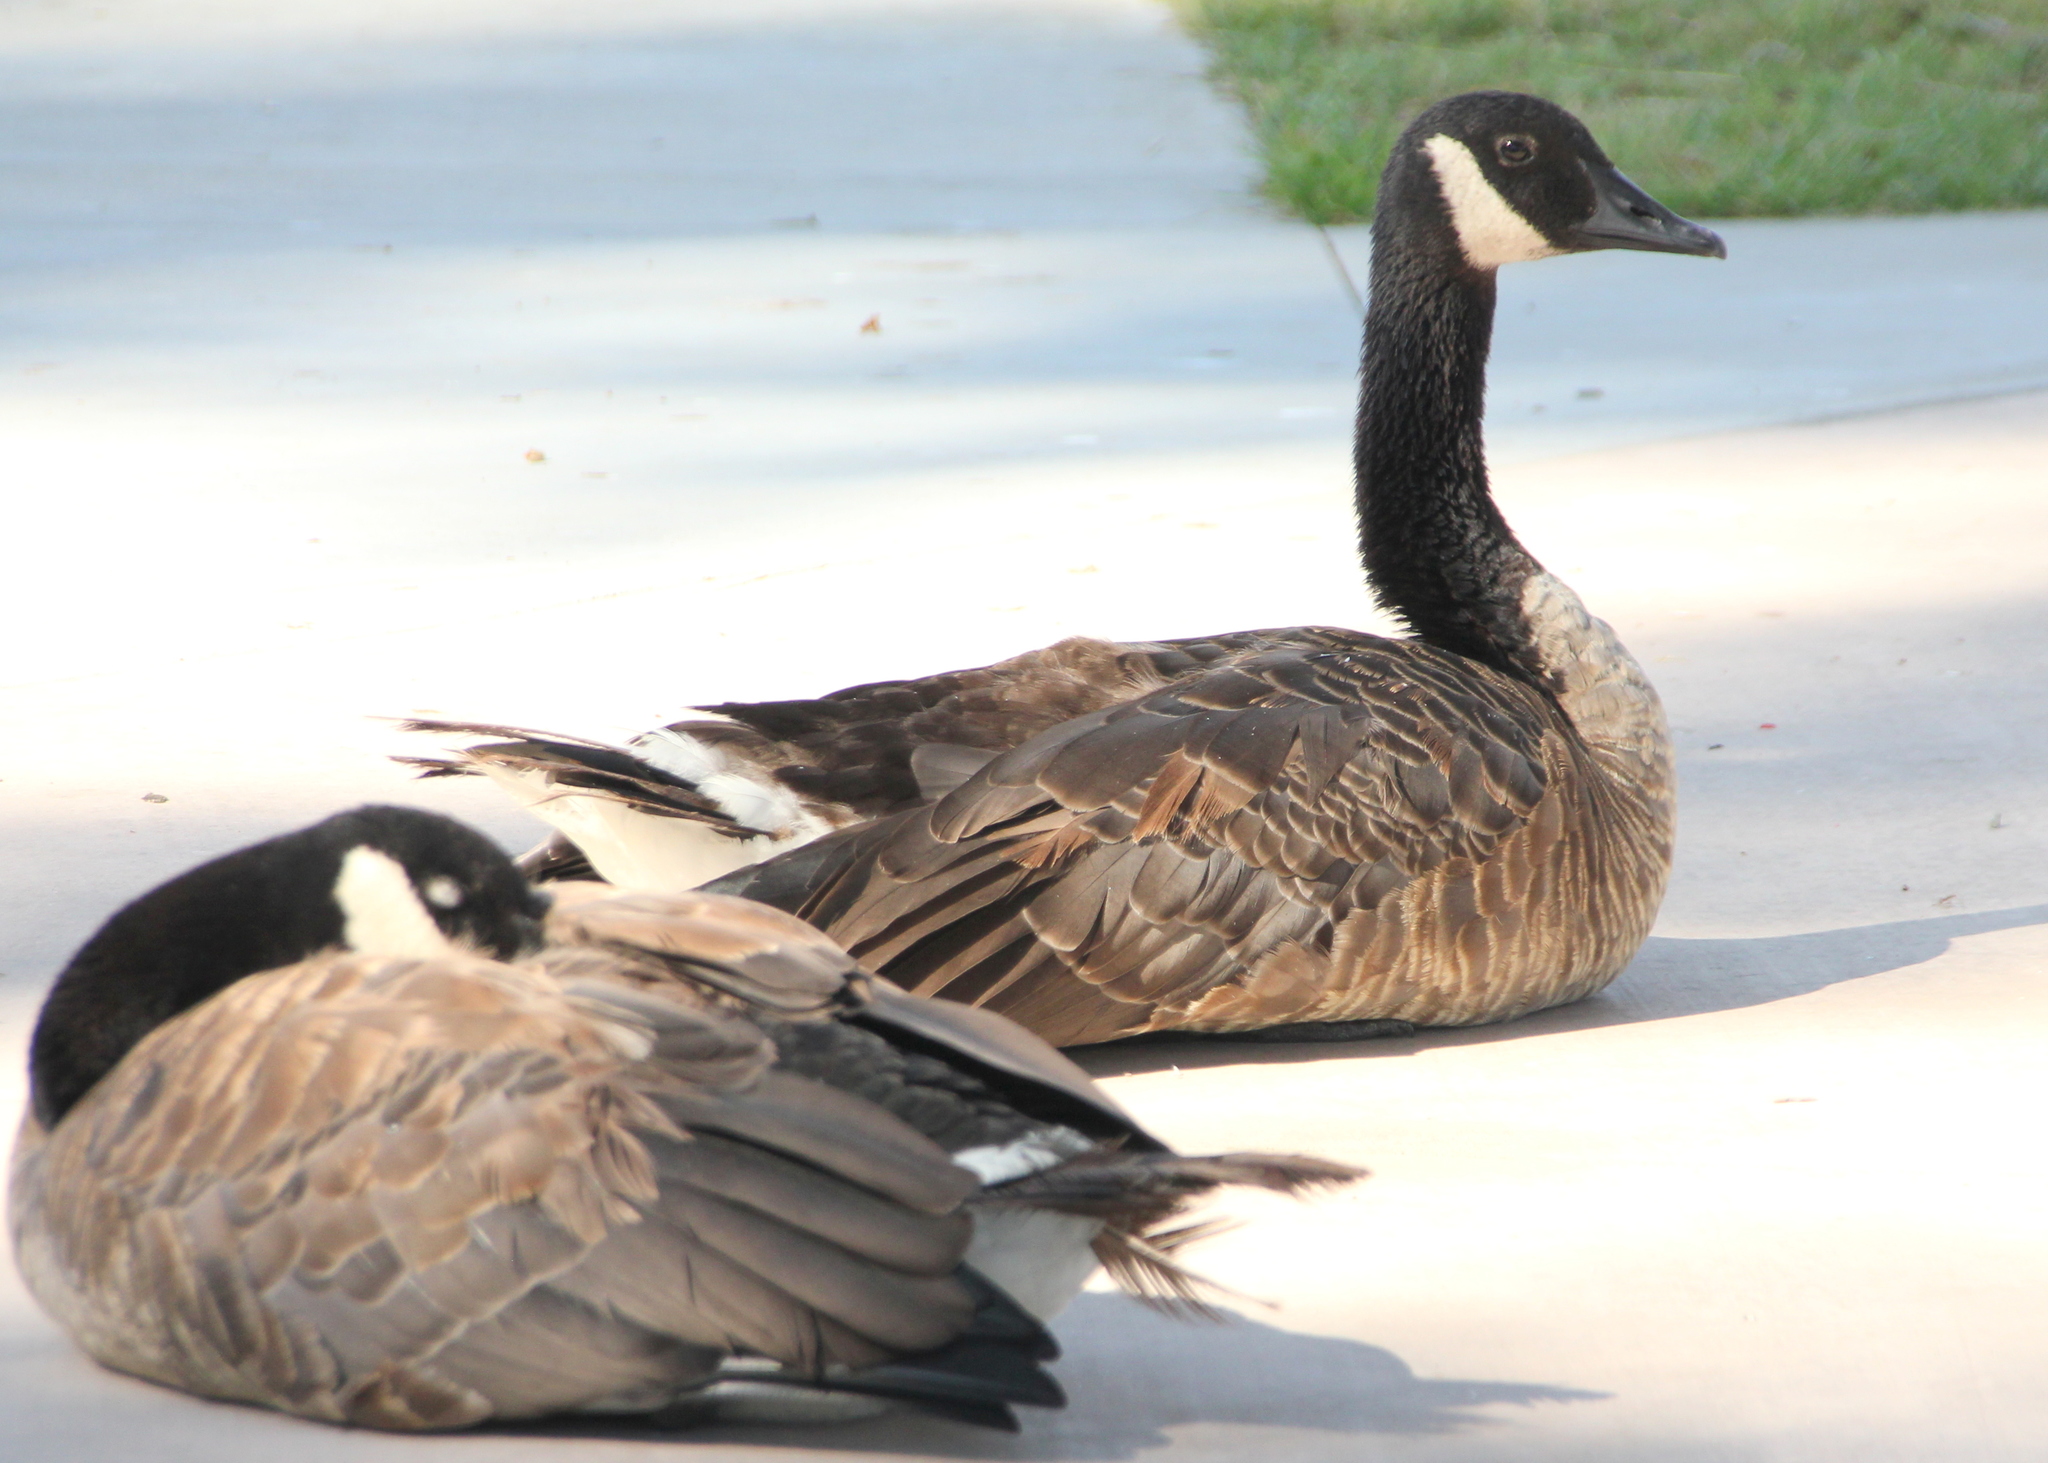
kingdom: Animalia
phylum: Chordata
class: Aves
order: Anseriformes
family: Anatidae
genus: Branta
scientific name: Branta canadensis
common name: Canada goose
